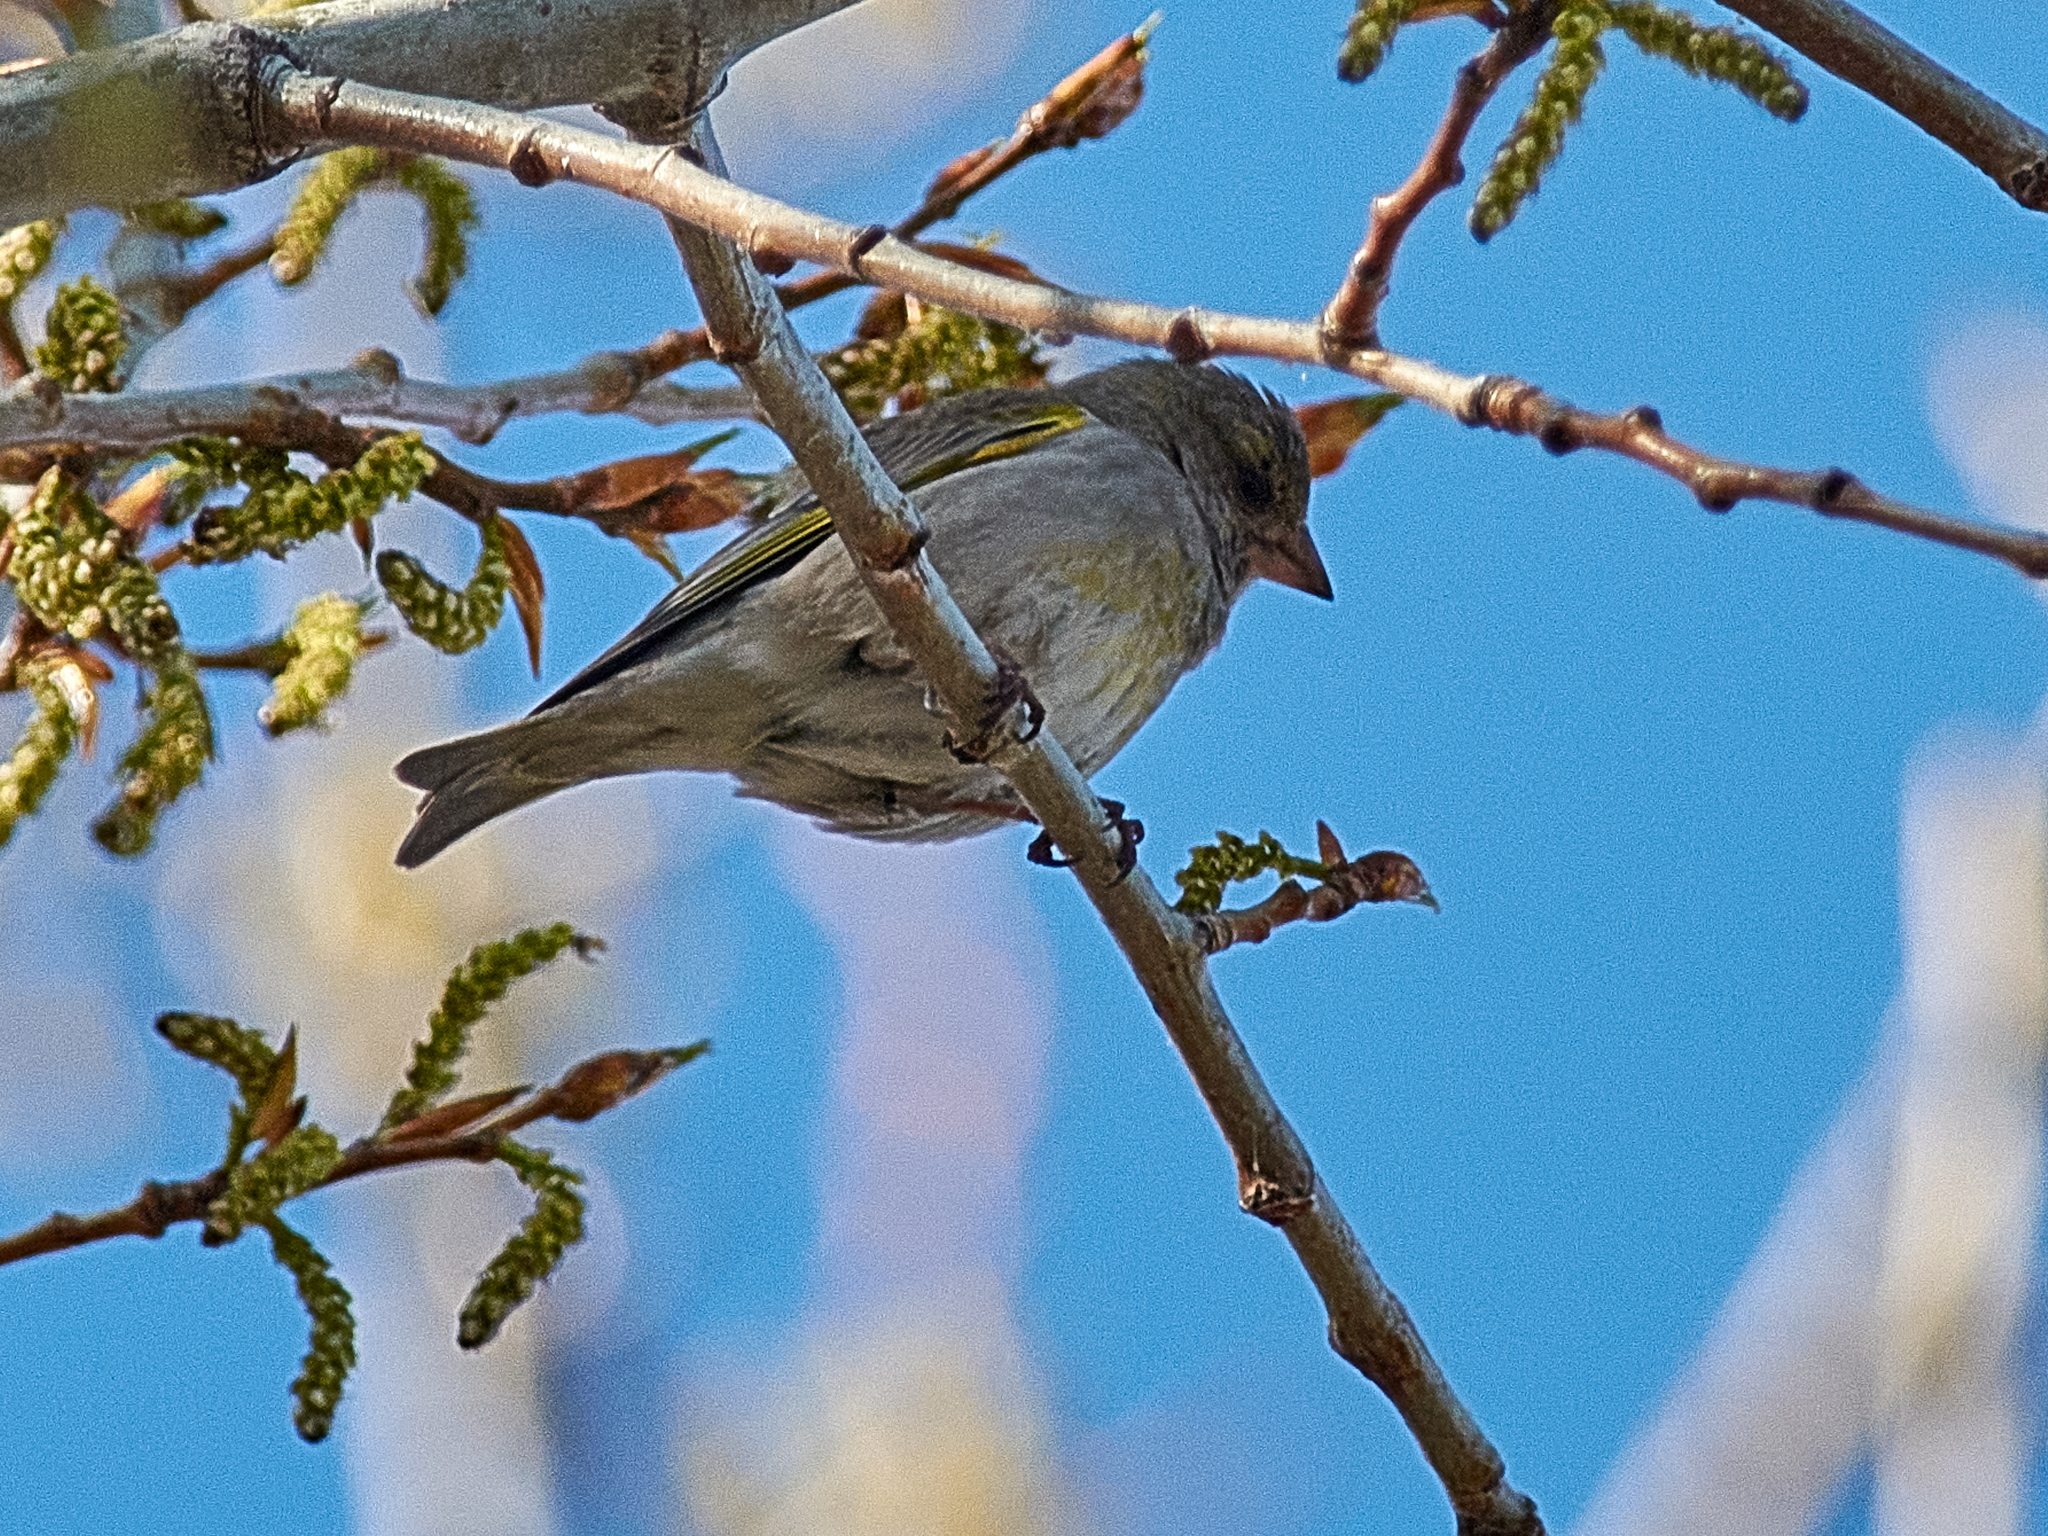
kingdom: Plantae
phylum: Tracheophyta
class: Liliopsida
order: Poales
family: Poaceae
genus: Chloris
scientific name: Chloris chloris
